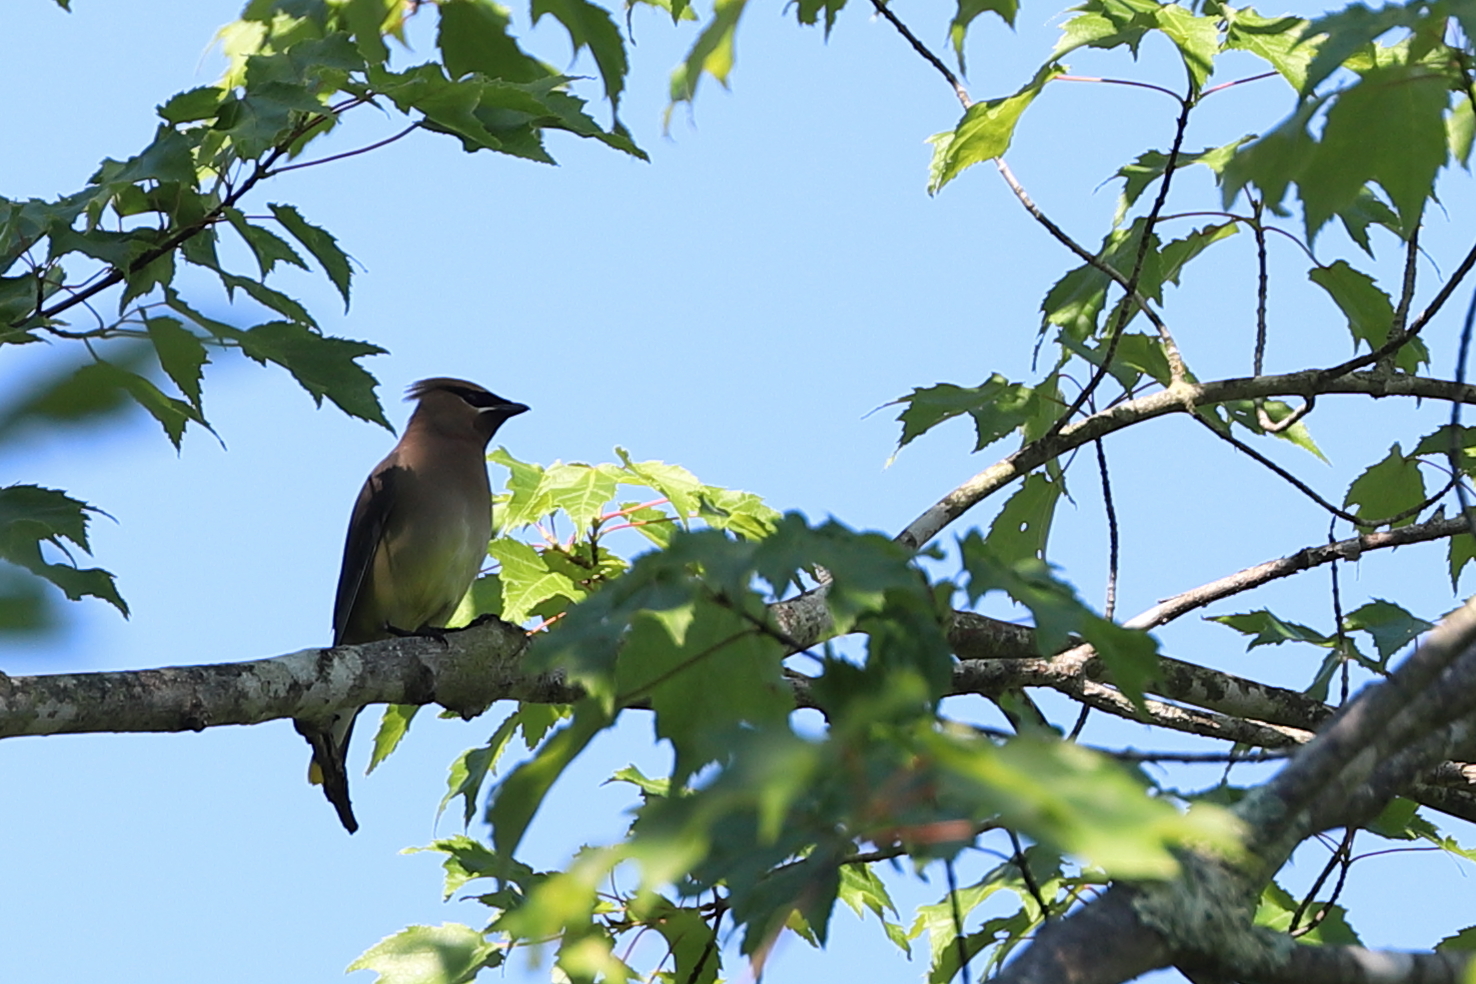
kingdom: Animalia
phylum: Chordata
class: Aves
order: Passeriformes
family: Bombycillidae
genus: Bombycilla
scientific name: Bombycilla cedrorum
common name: Cedar waxwing
